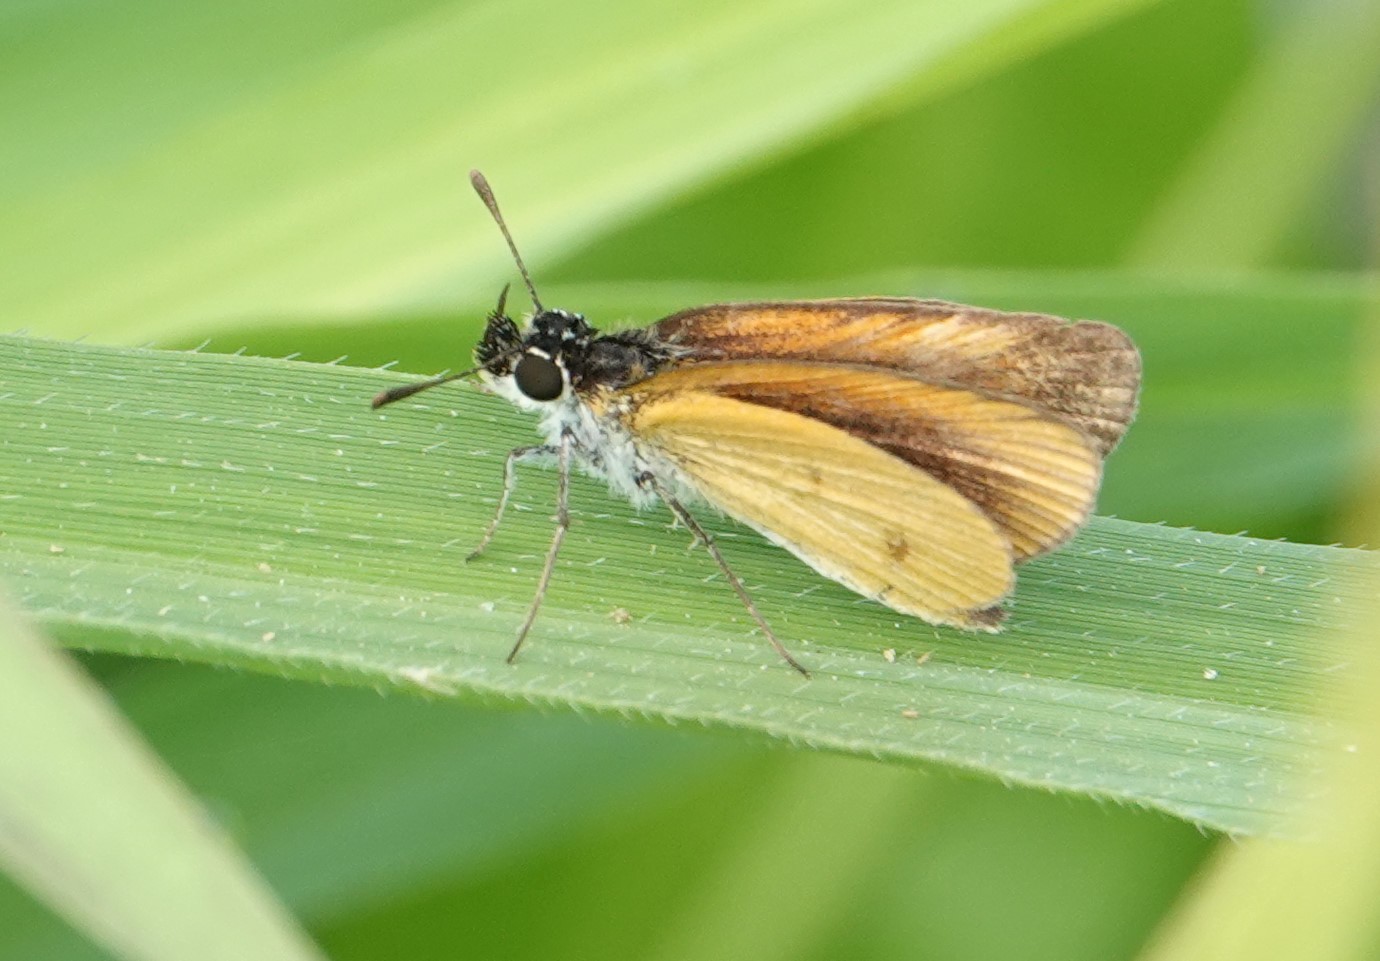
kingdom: Animalia
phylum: Arthropoda
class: Insecta
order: Lepidoptera
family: Hesperiidae
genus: Ancyloxypha
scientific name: Ancyloxypha numitor
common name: Least skipper
